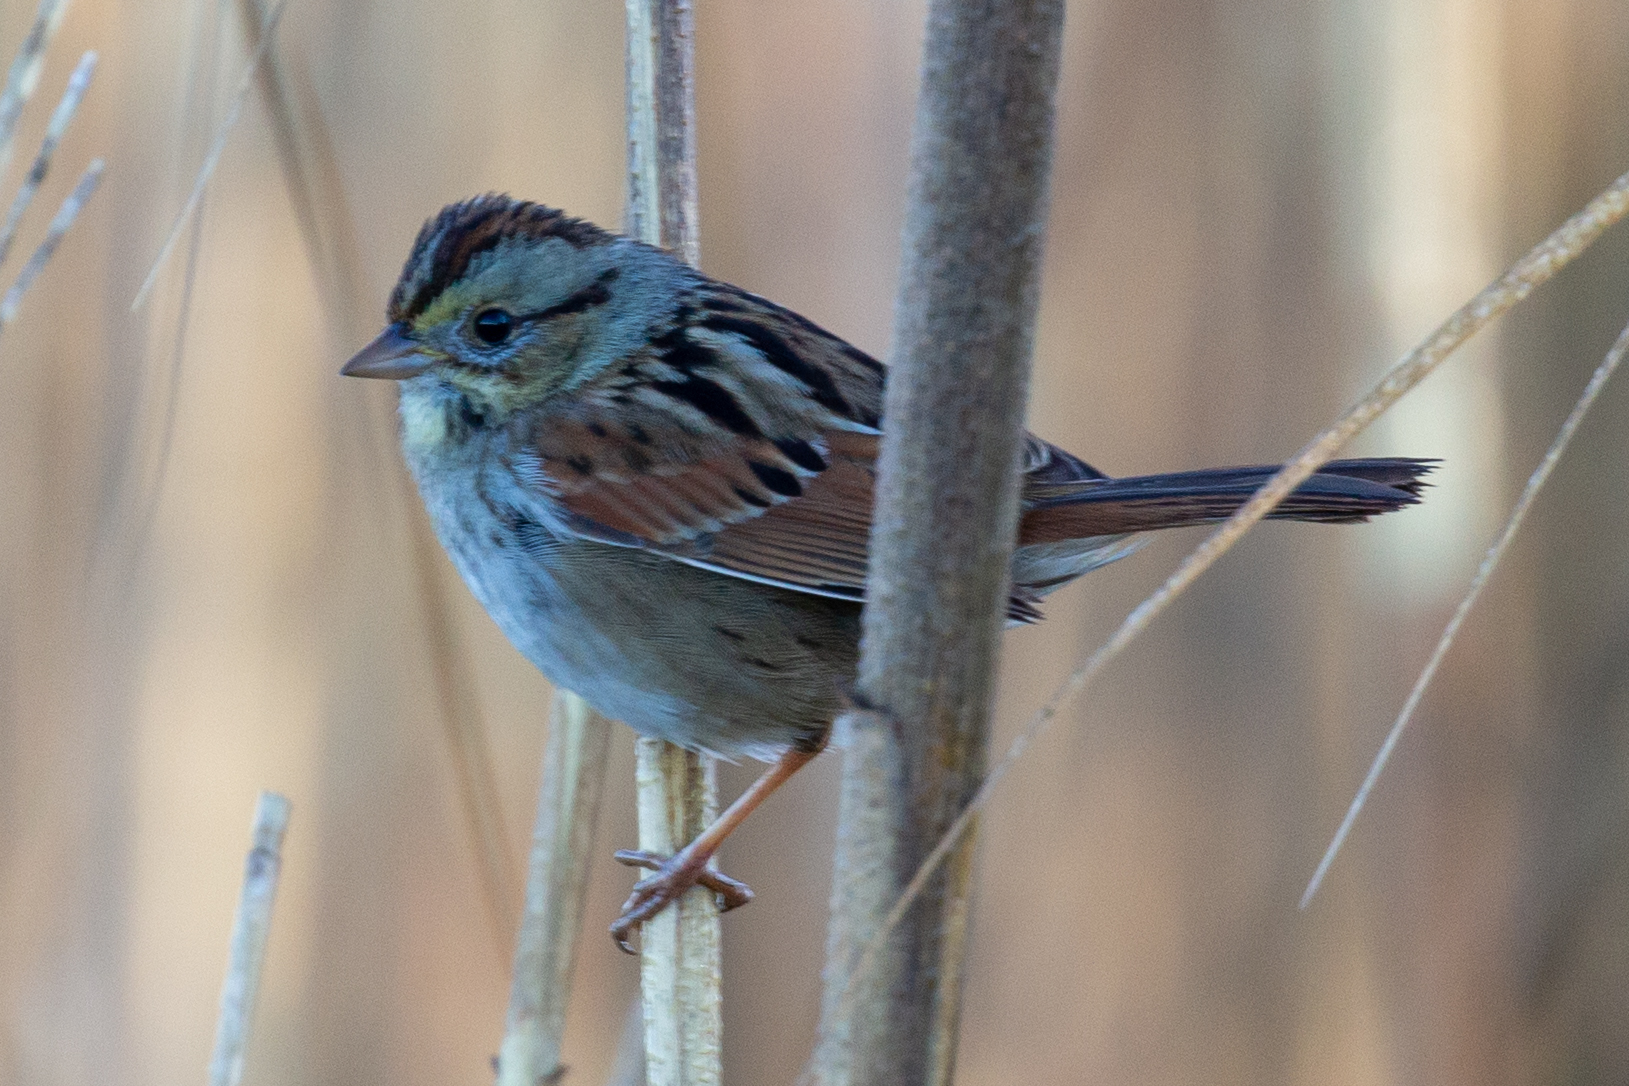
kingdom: Animalia
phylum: Chordata
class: Aves
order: Passeriformes
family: Passerellidae
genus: Melospiza
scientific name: Melospiza georgiana
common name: Swamp sparrow
